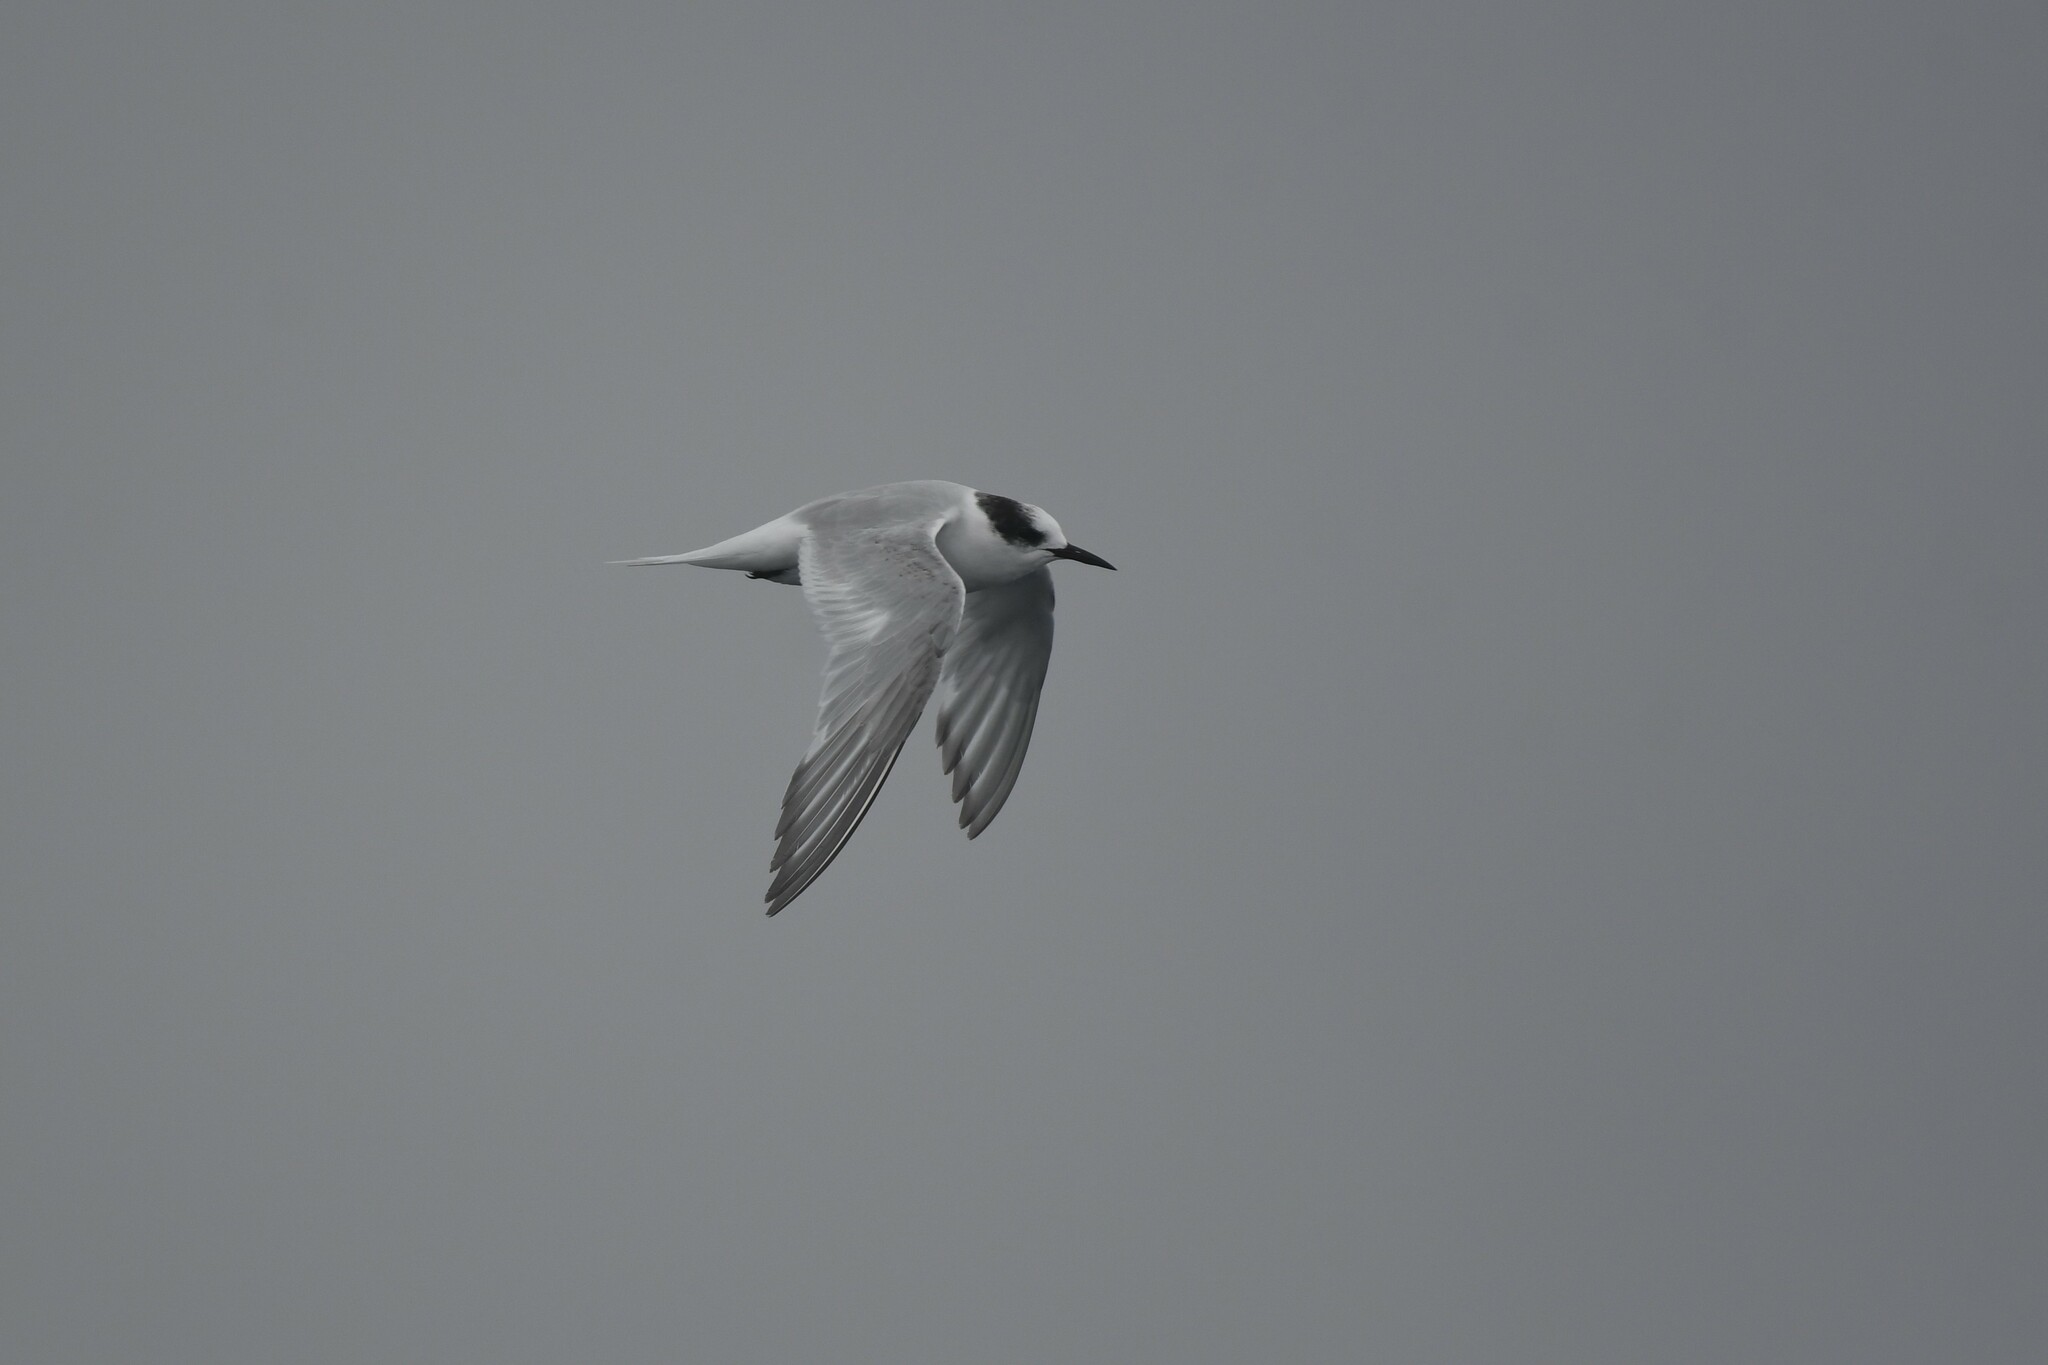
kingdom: Animalia
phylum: Chordata
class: Aves
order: Charadriiformes
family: Laridae
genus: Sterna
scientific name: Sterna vittata
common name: Antarctic tern
